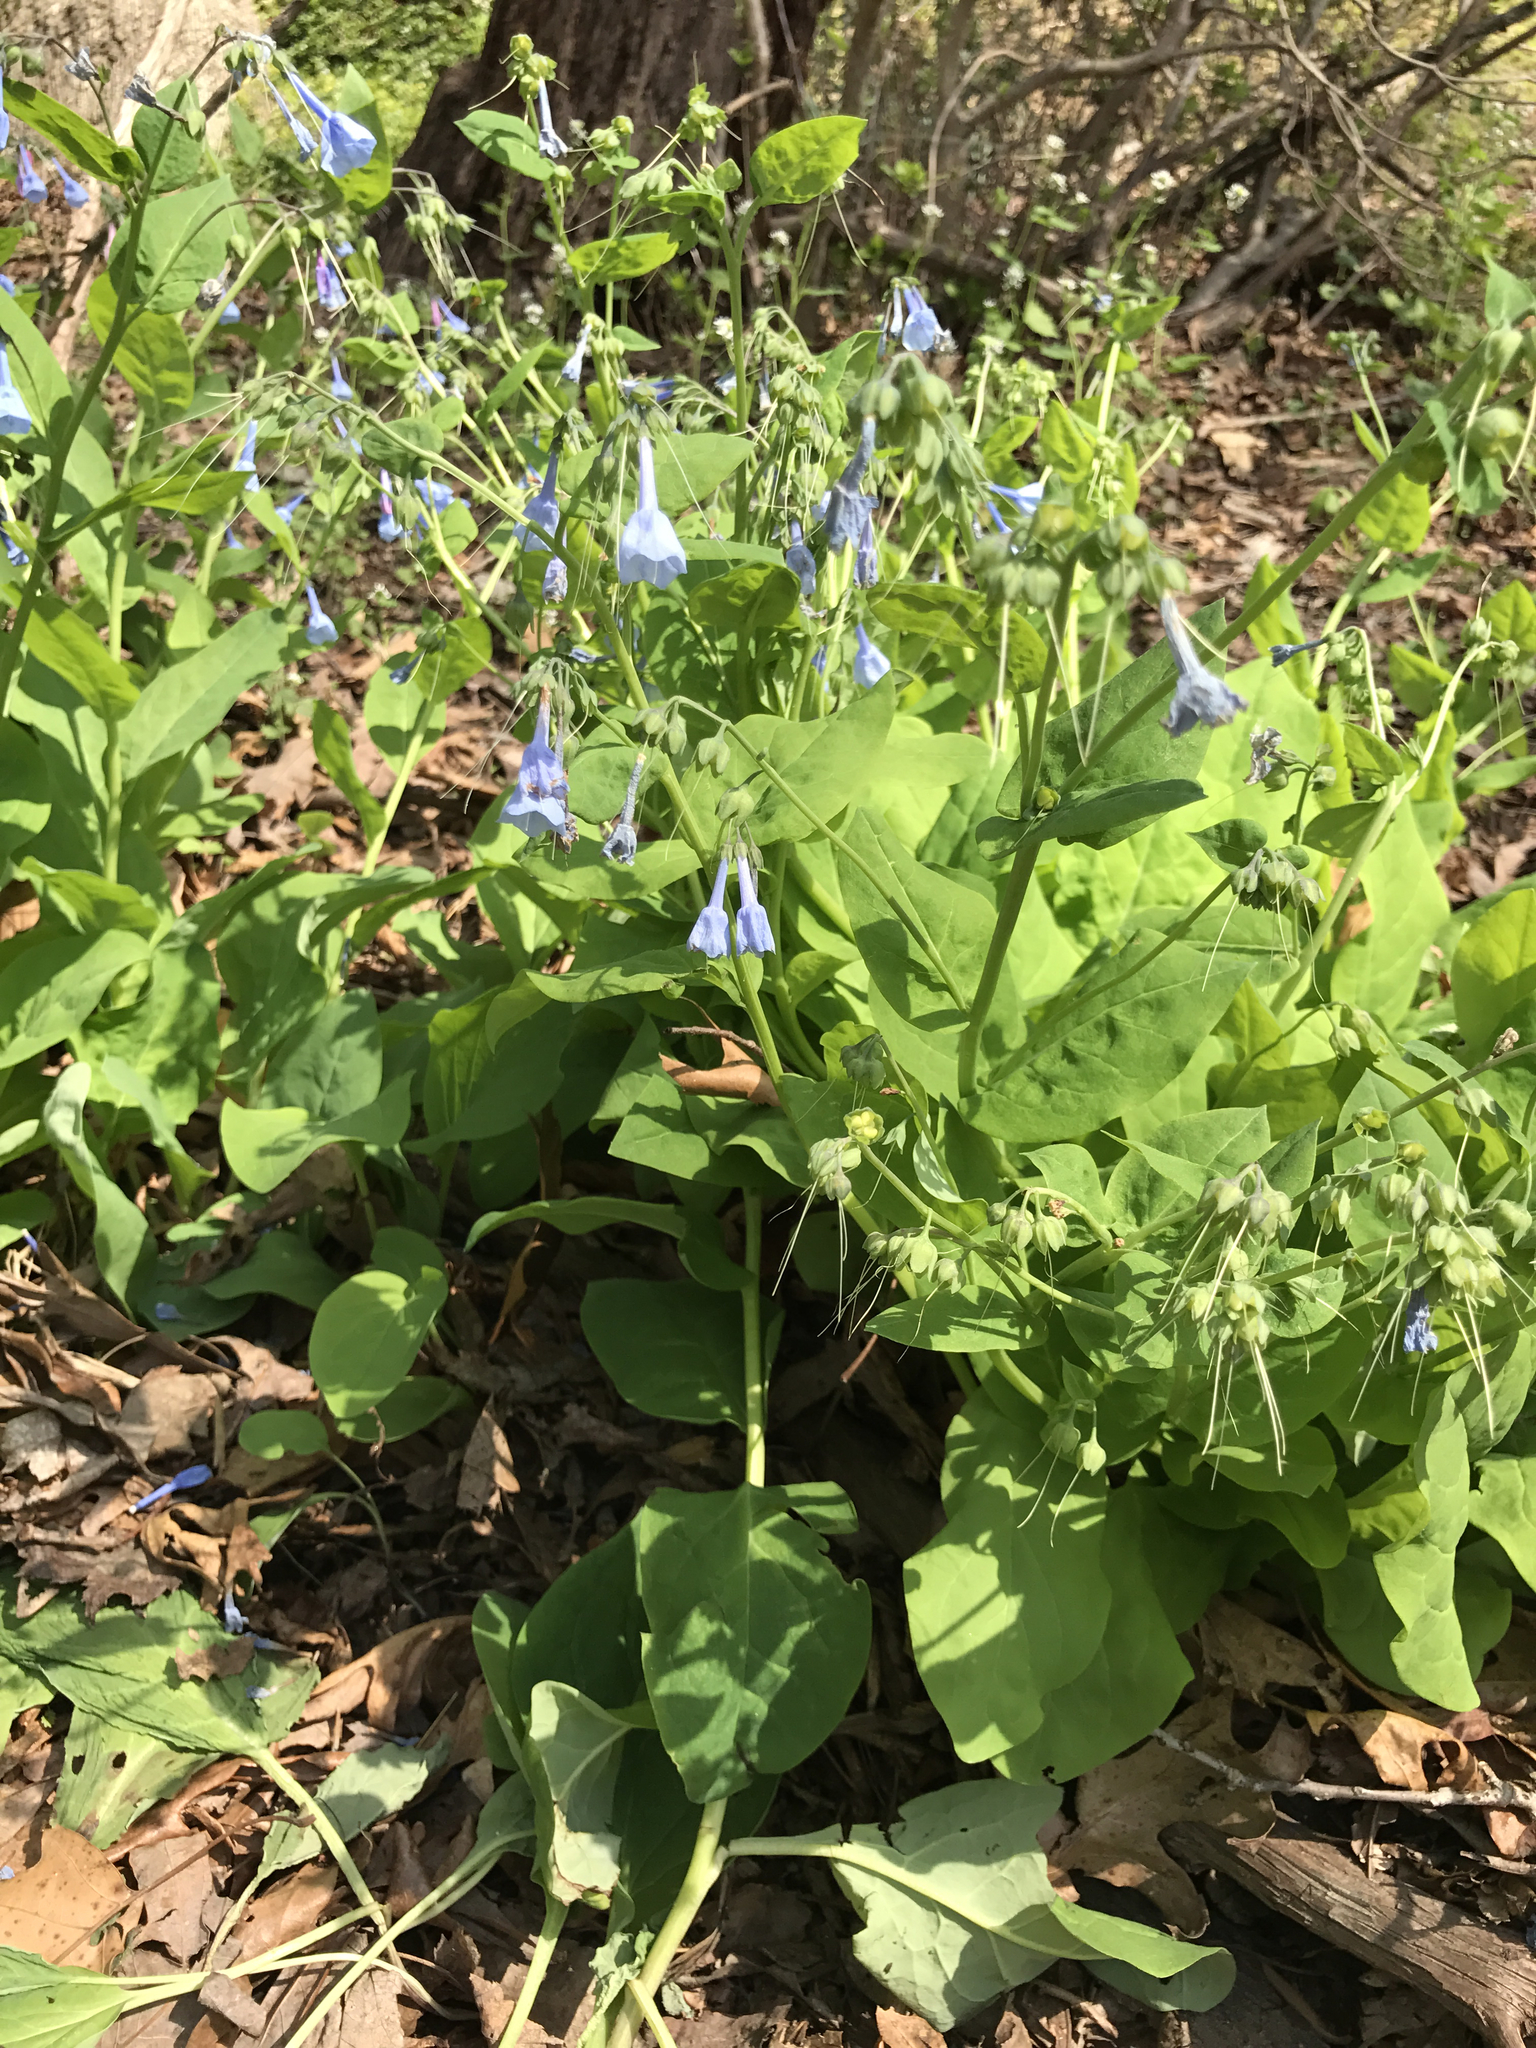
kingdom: Plantae
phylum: Tracheophyta
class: Magnoliopsida
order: Boraginales
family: Boraginaceae
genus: Mertensia
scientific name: Mertensia virginica
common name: Virginia bluebells
